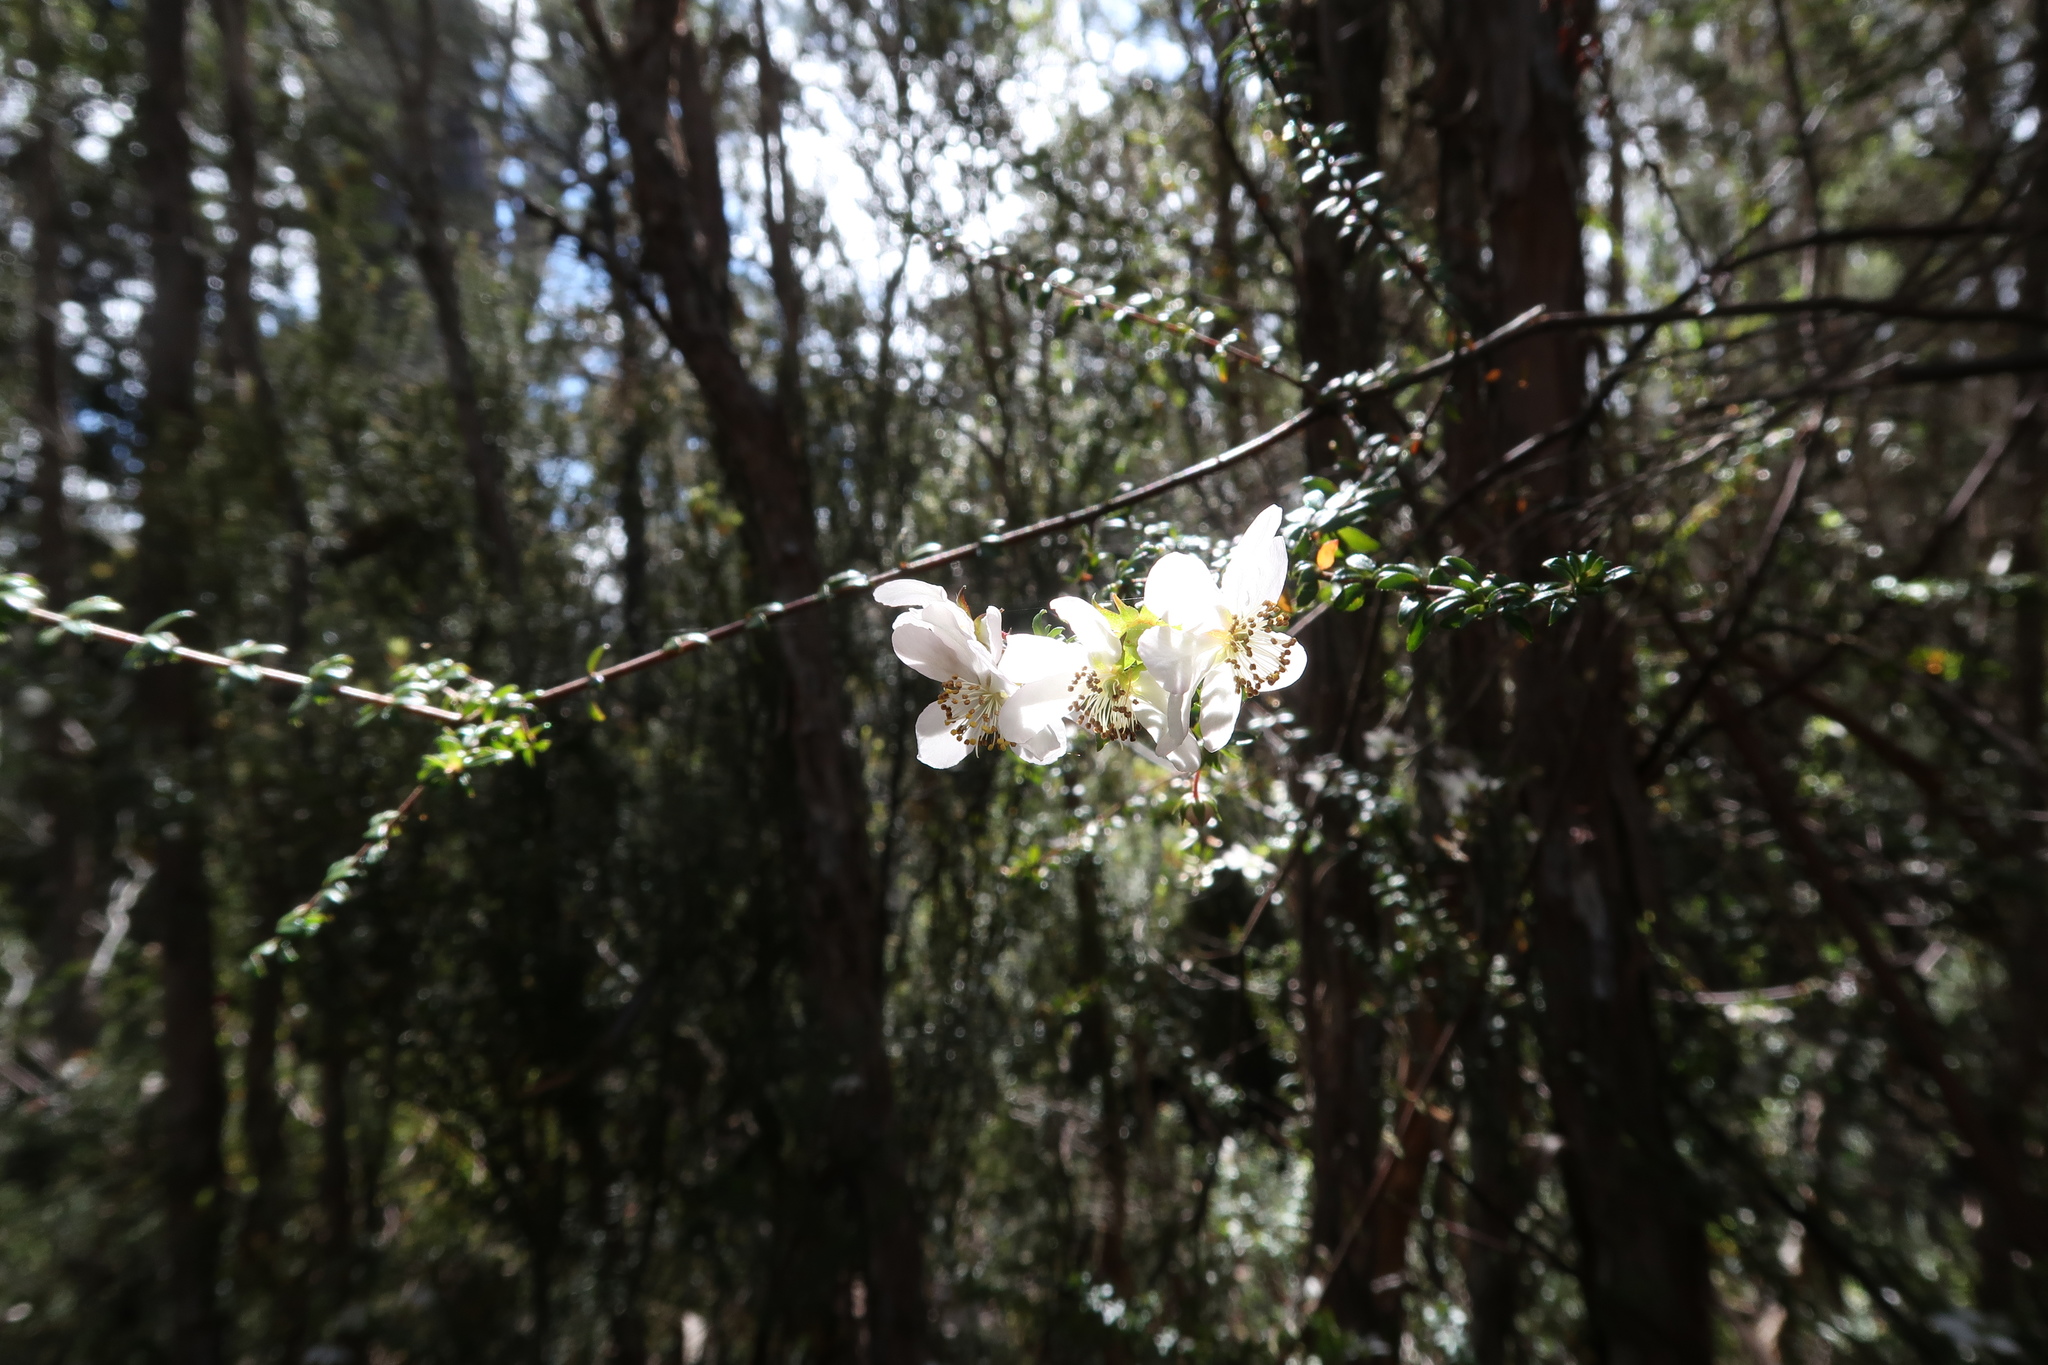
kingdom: Plantae
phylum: Tracheophyta
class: Magnoliopsida
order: Oxalidales
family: Cunoniaceae
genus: Bauera
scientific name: Bauera rubioides
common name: River-rose
